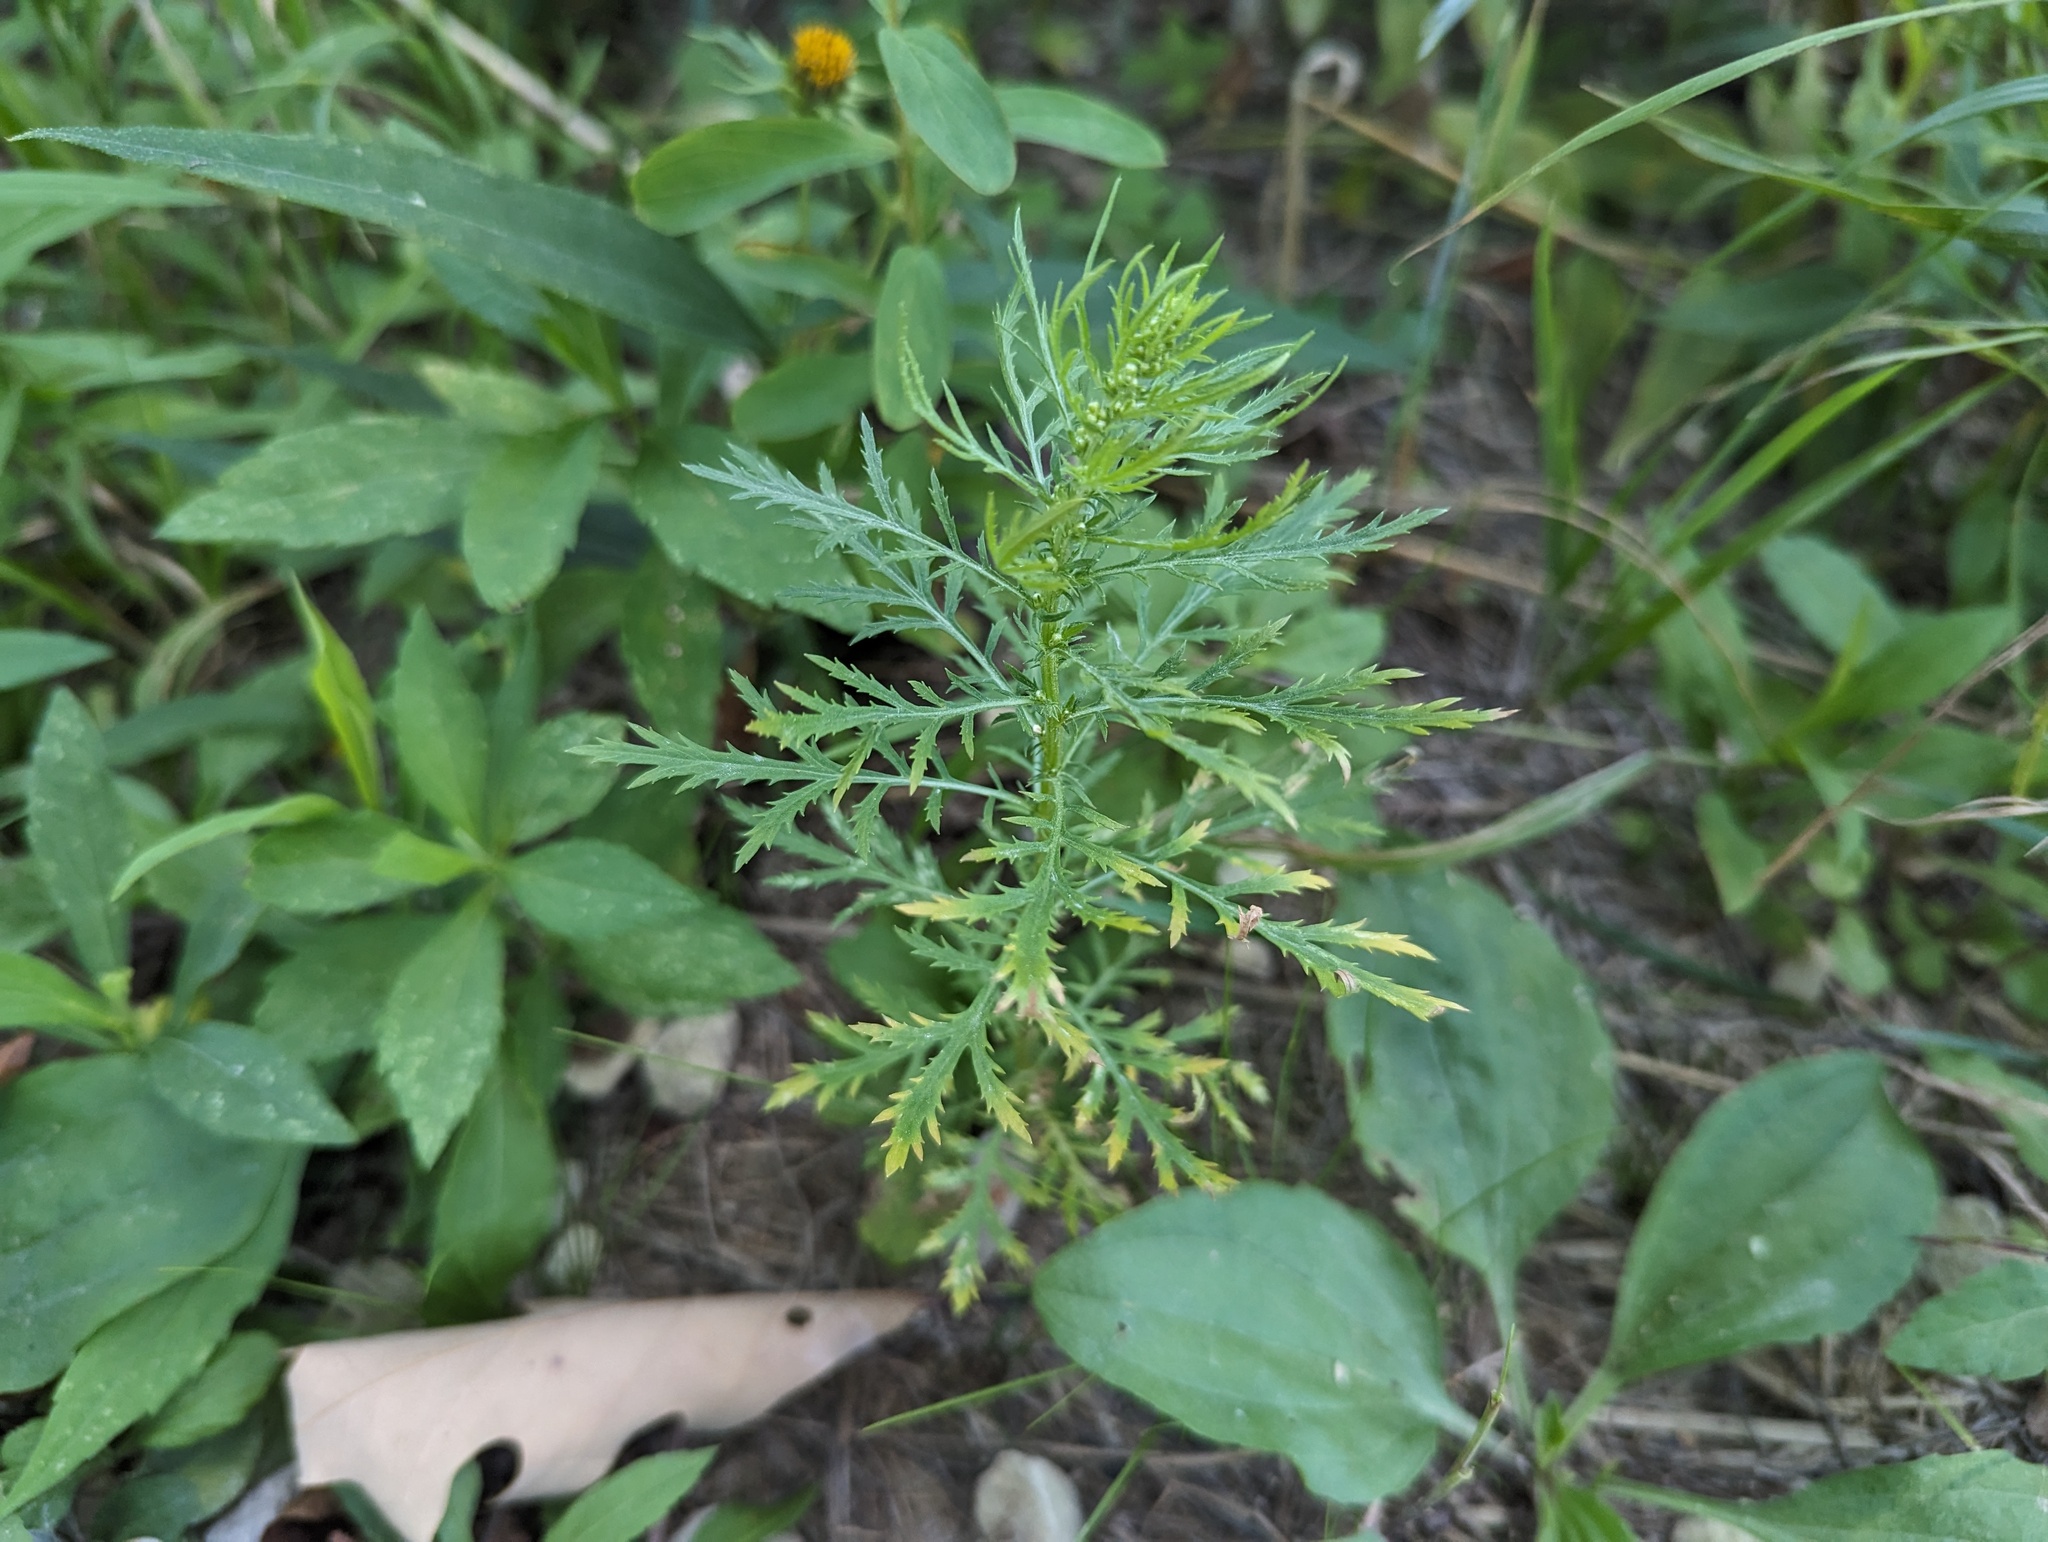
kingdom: Plantae
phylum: Tracheophyta
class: Magnoliopsida
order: Asterales
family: Asteraceae
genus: Artemisia
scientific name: Artemisia biennis
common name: Biennial wormwood
